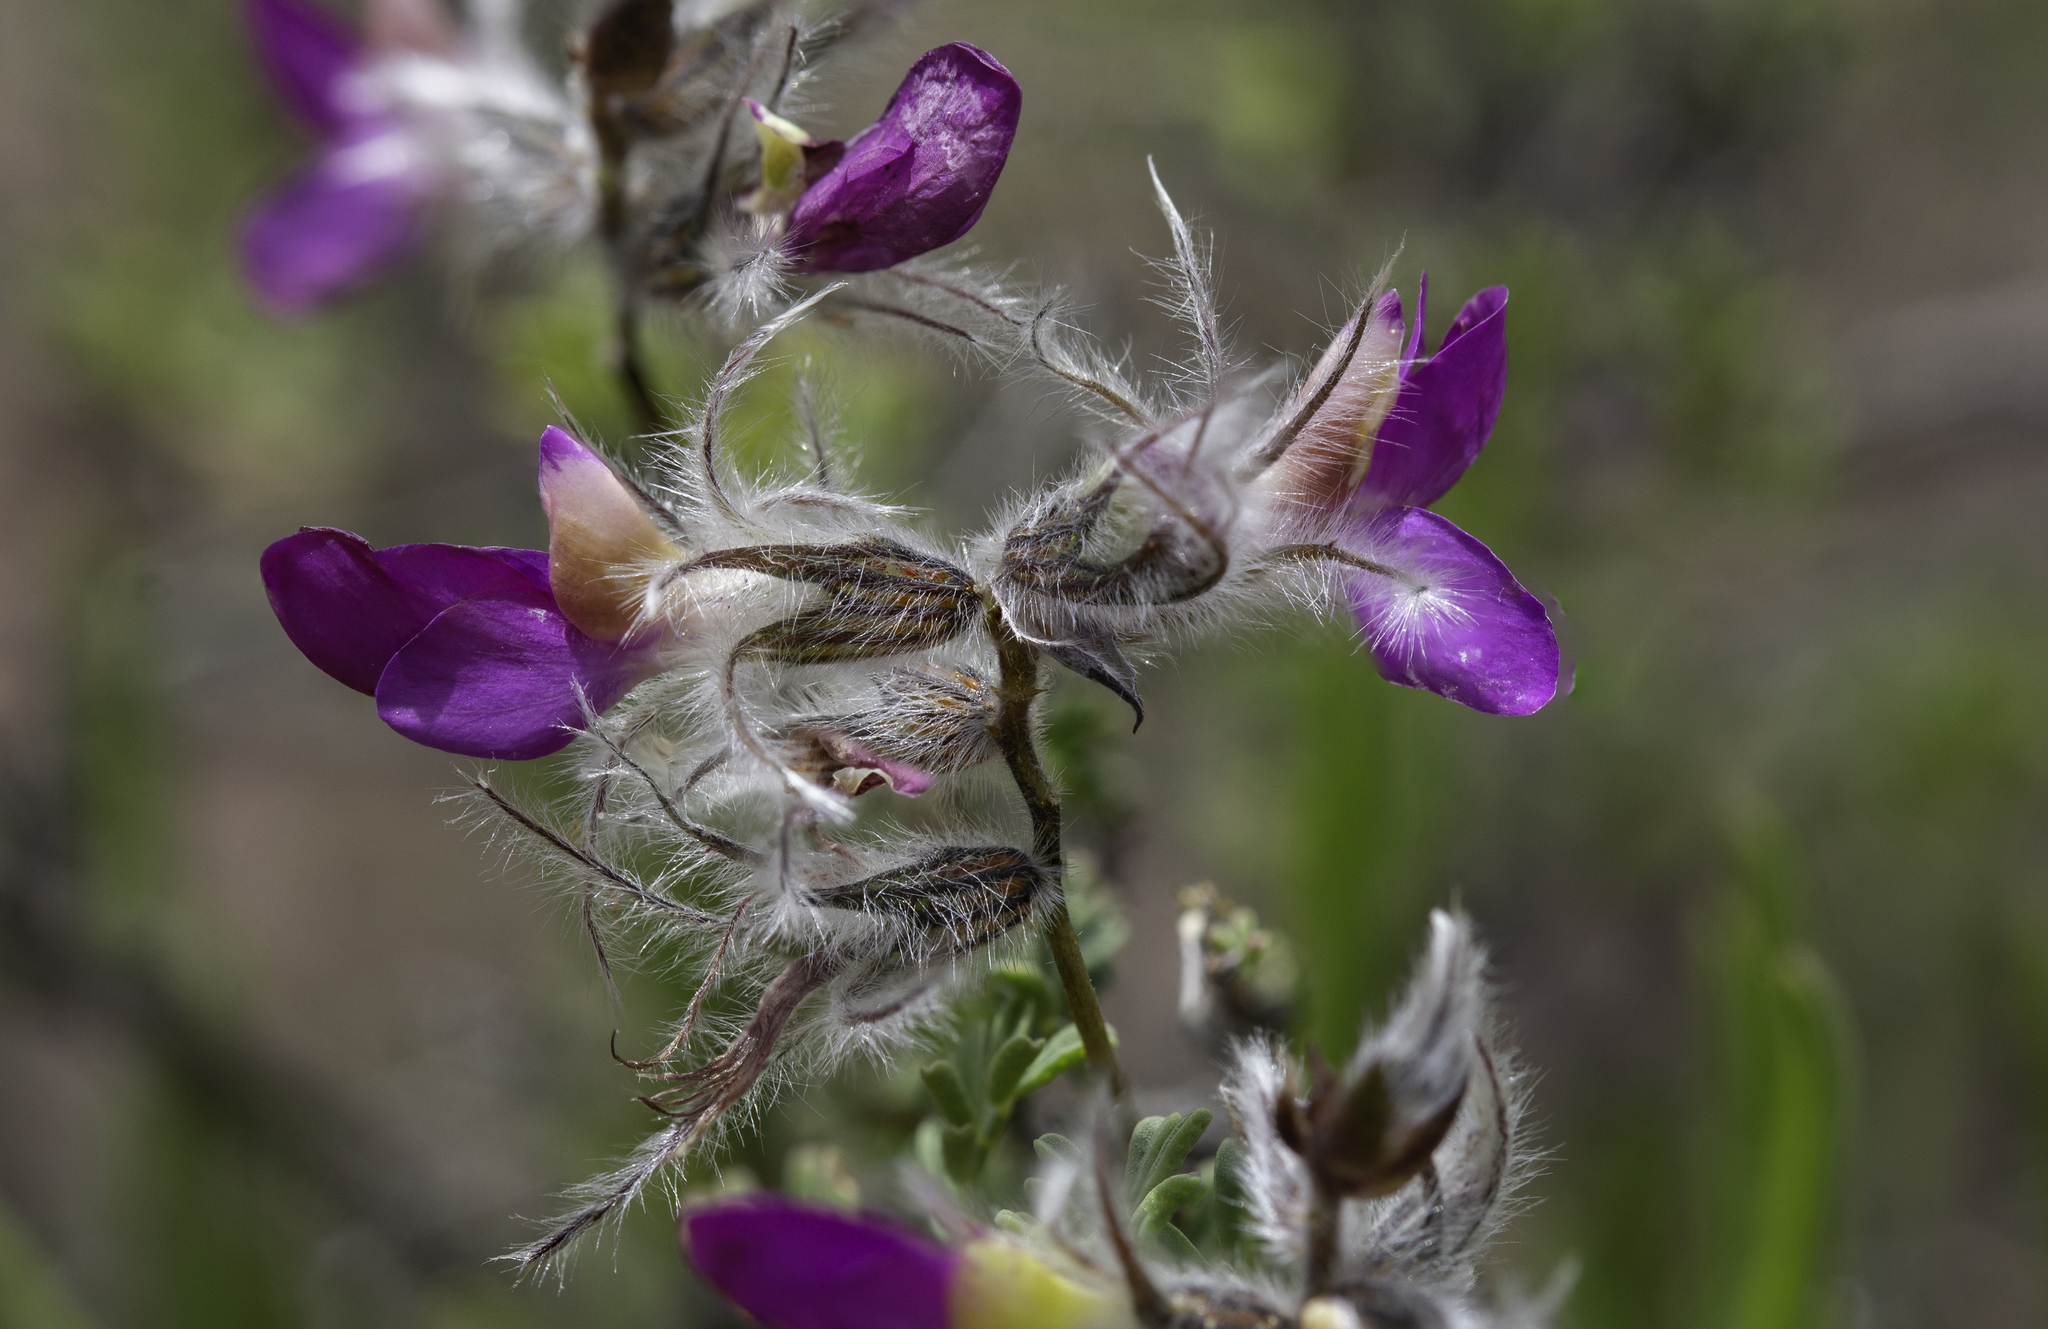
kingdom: Plantae
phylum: Tracheophyta
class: Magnoliopsida
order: Fabales
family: Fabaceae
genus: Dalea
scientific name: Dalea formosa
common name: Feather-plume dalea
